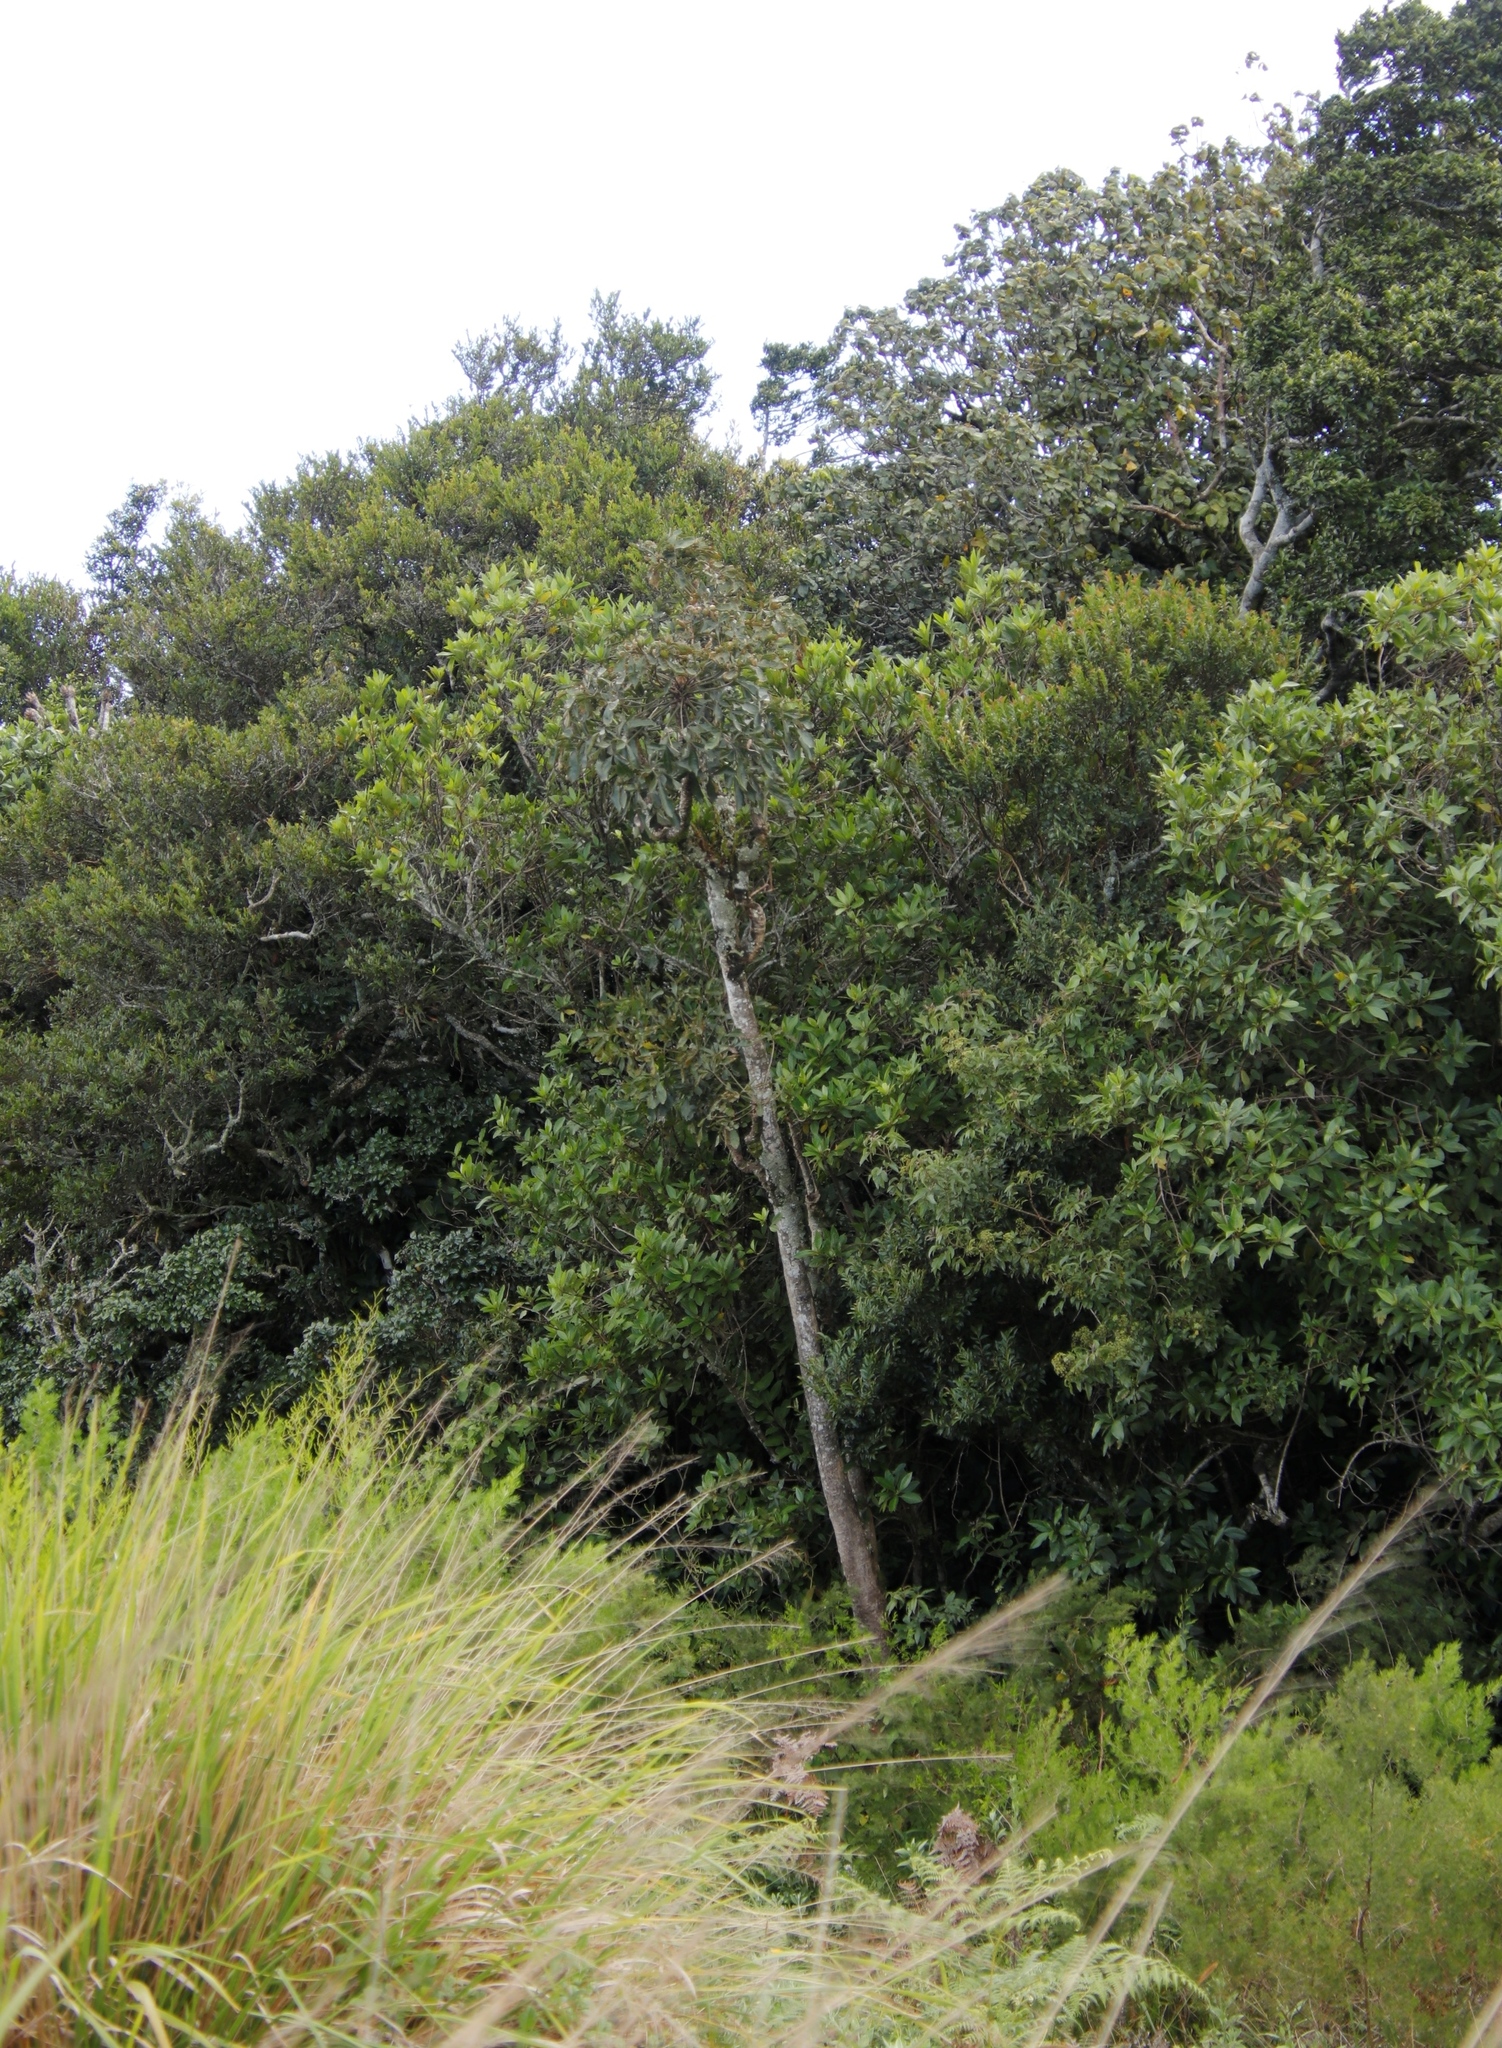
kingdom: Plantae
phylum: Tracheophyta
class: Magnoliopsida
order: Apiales
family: Araliaceae
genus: Cussonia
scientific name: Cussonia spicata
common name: Common cabbagetree
